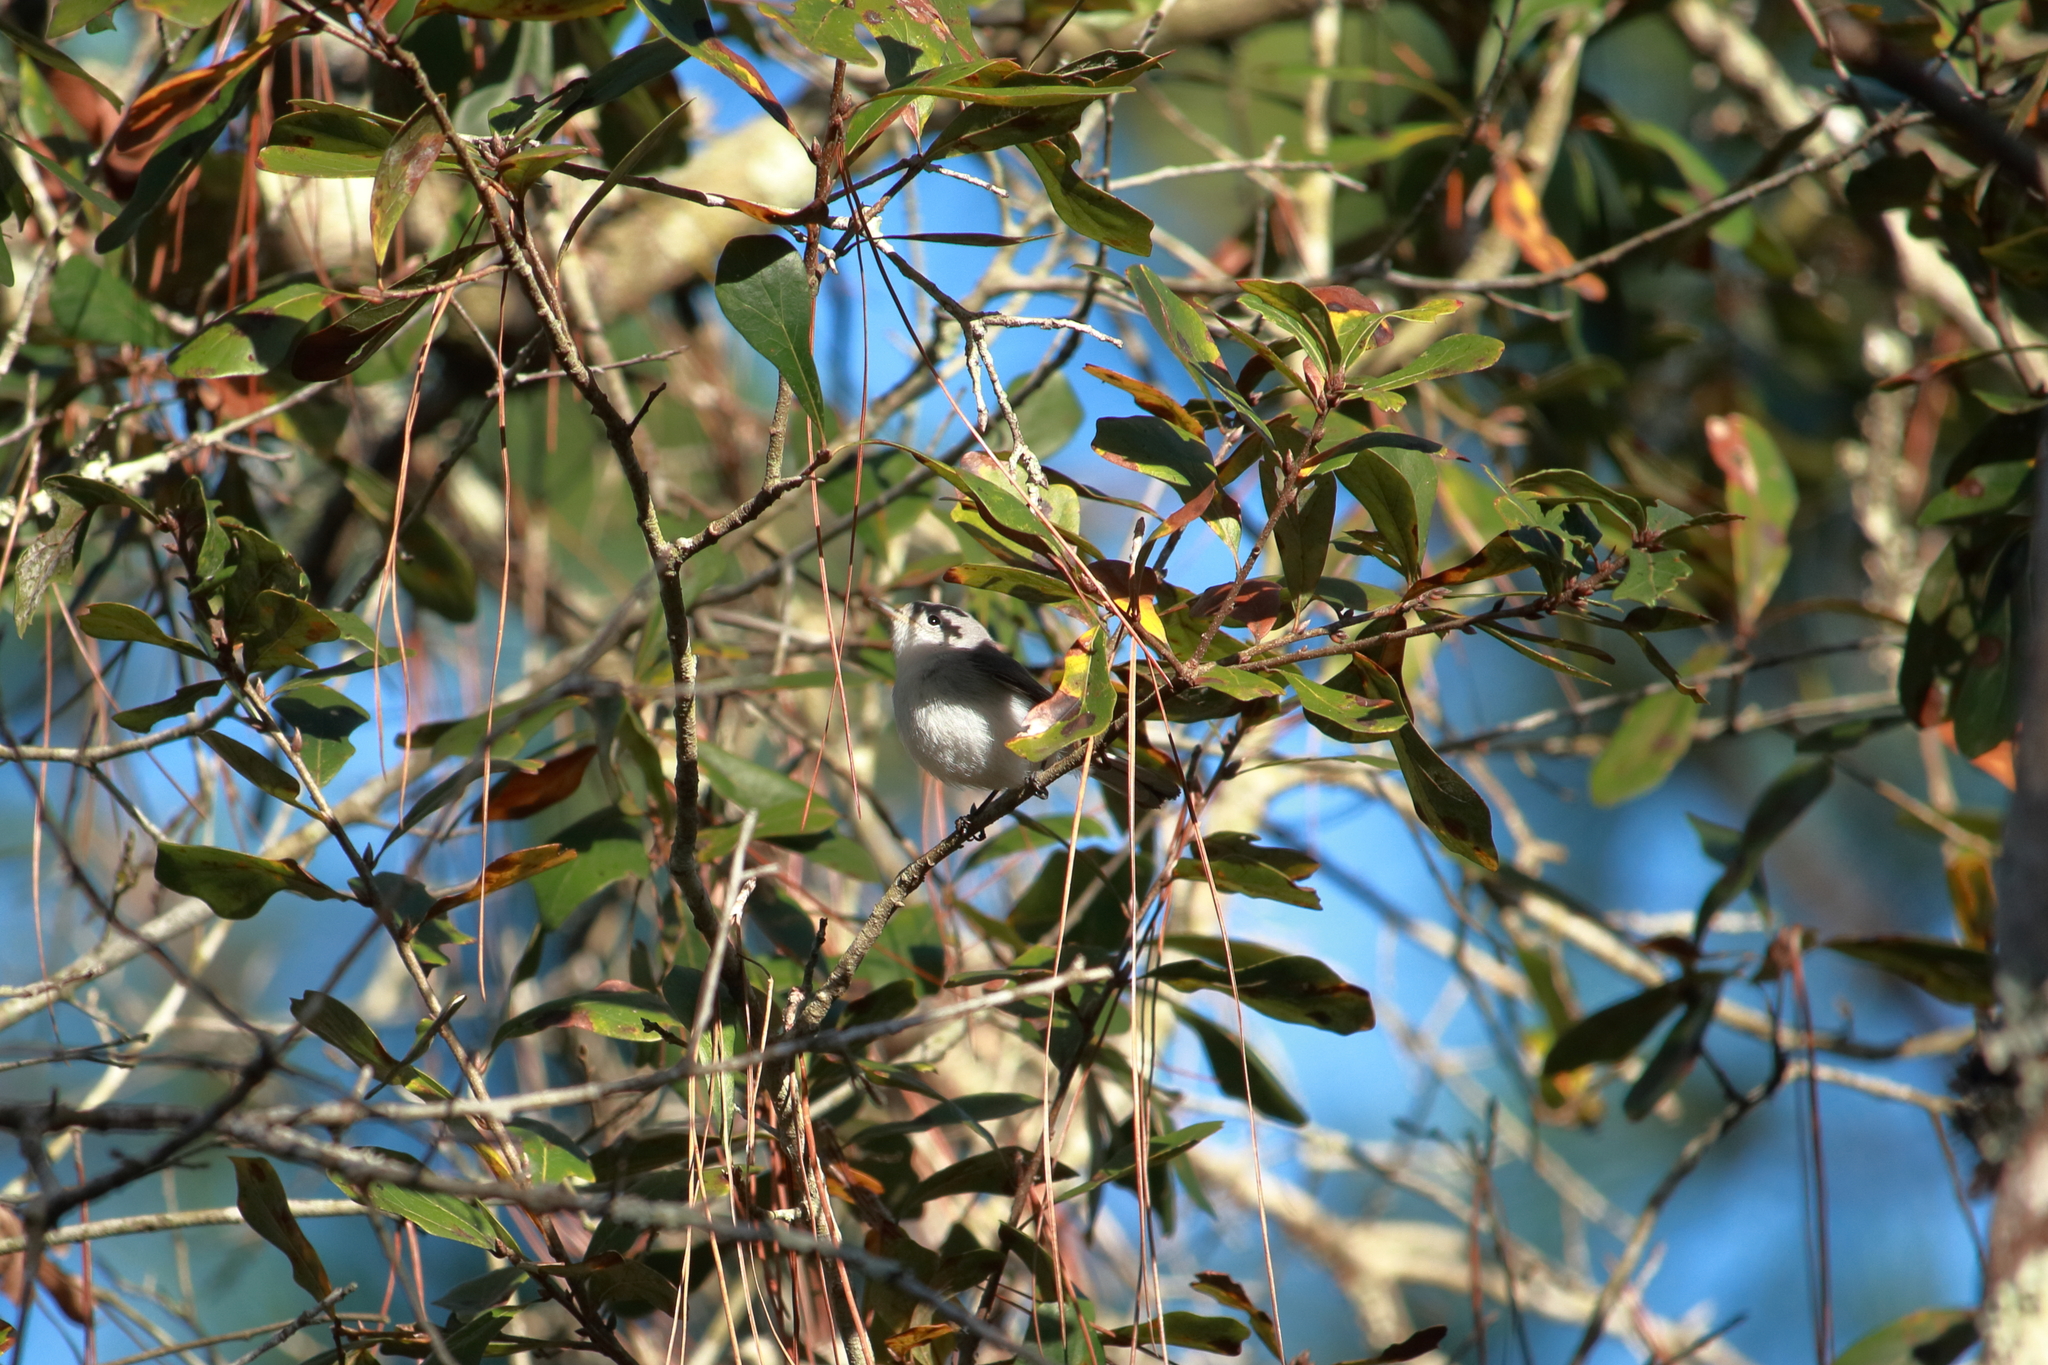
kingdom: Animalia
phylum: Chordata
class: Aves
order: Passeriformes
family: Polioptilidae
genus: Polioptila
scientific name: Polioptila caerulea
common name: Blue-gray gnatcatcher
